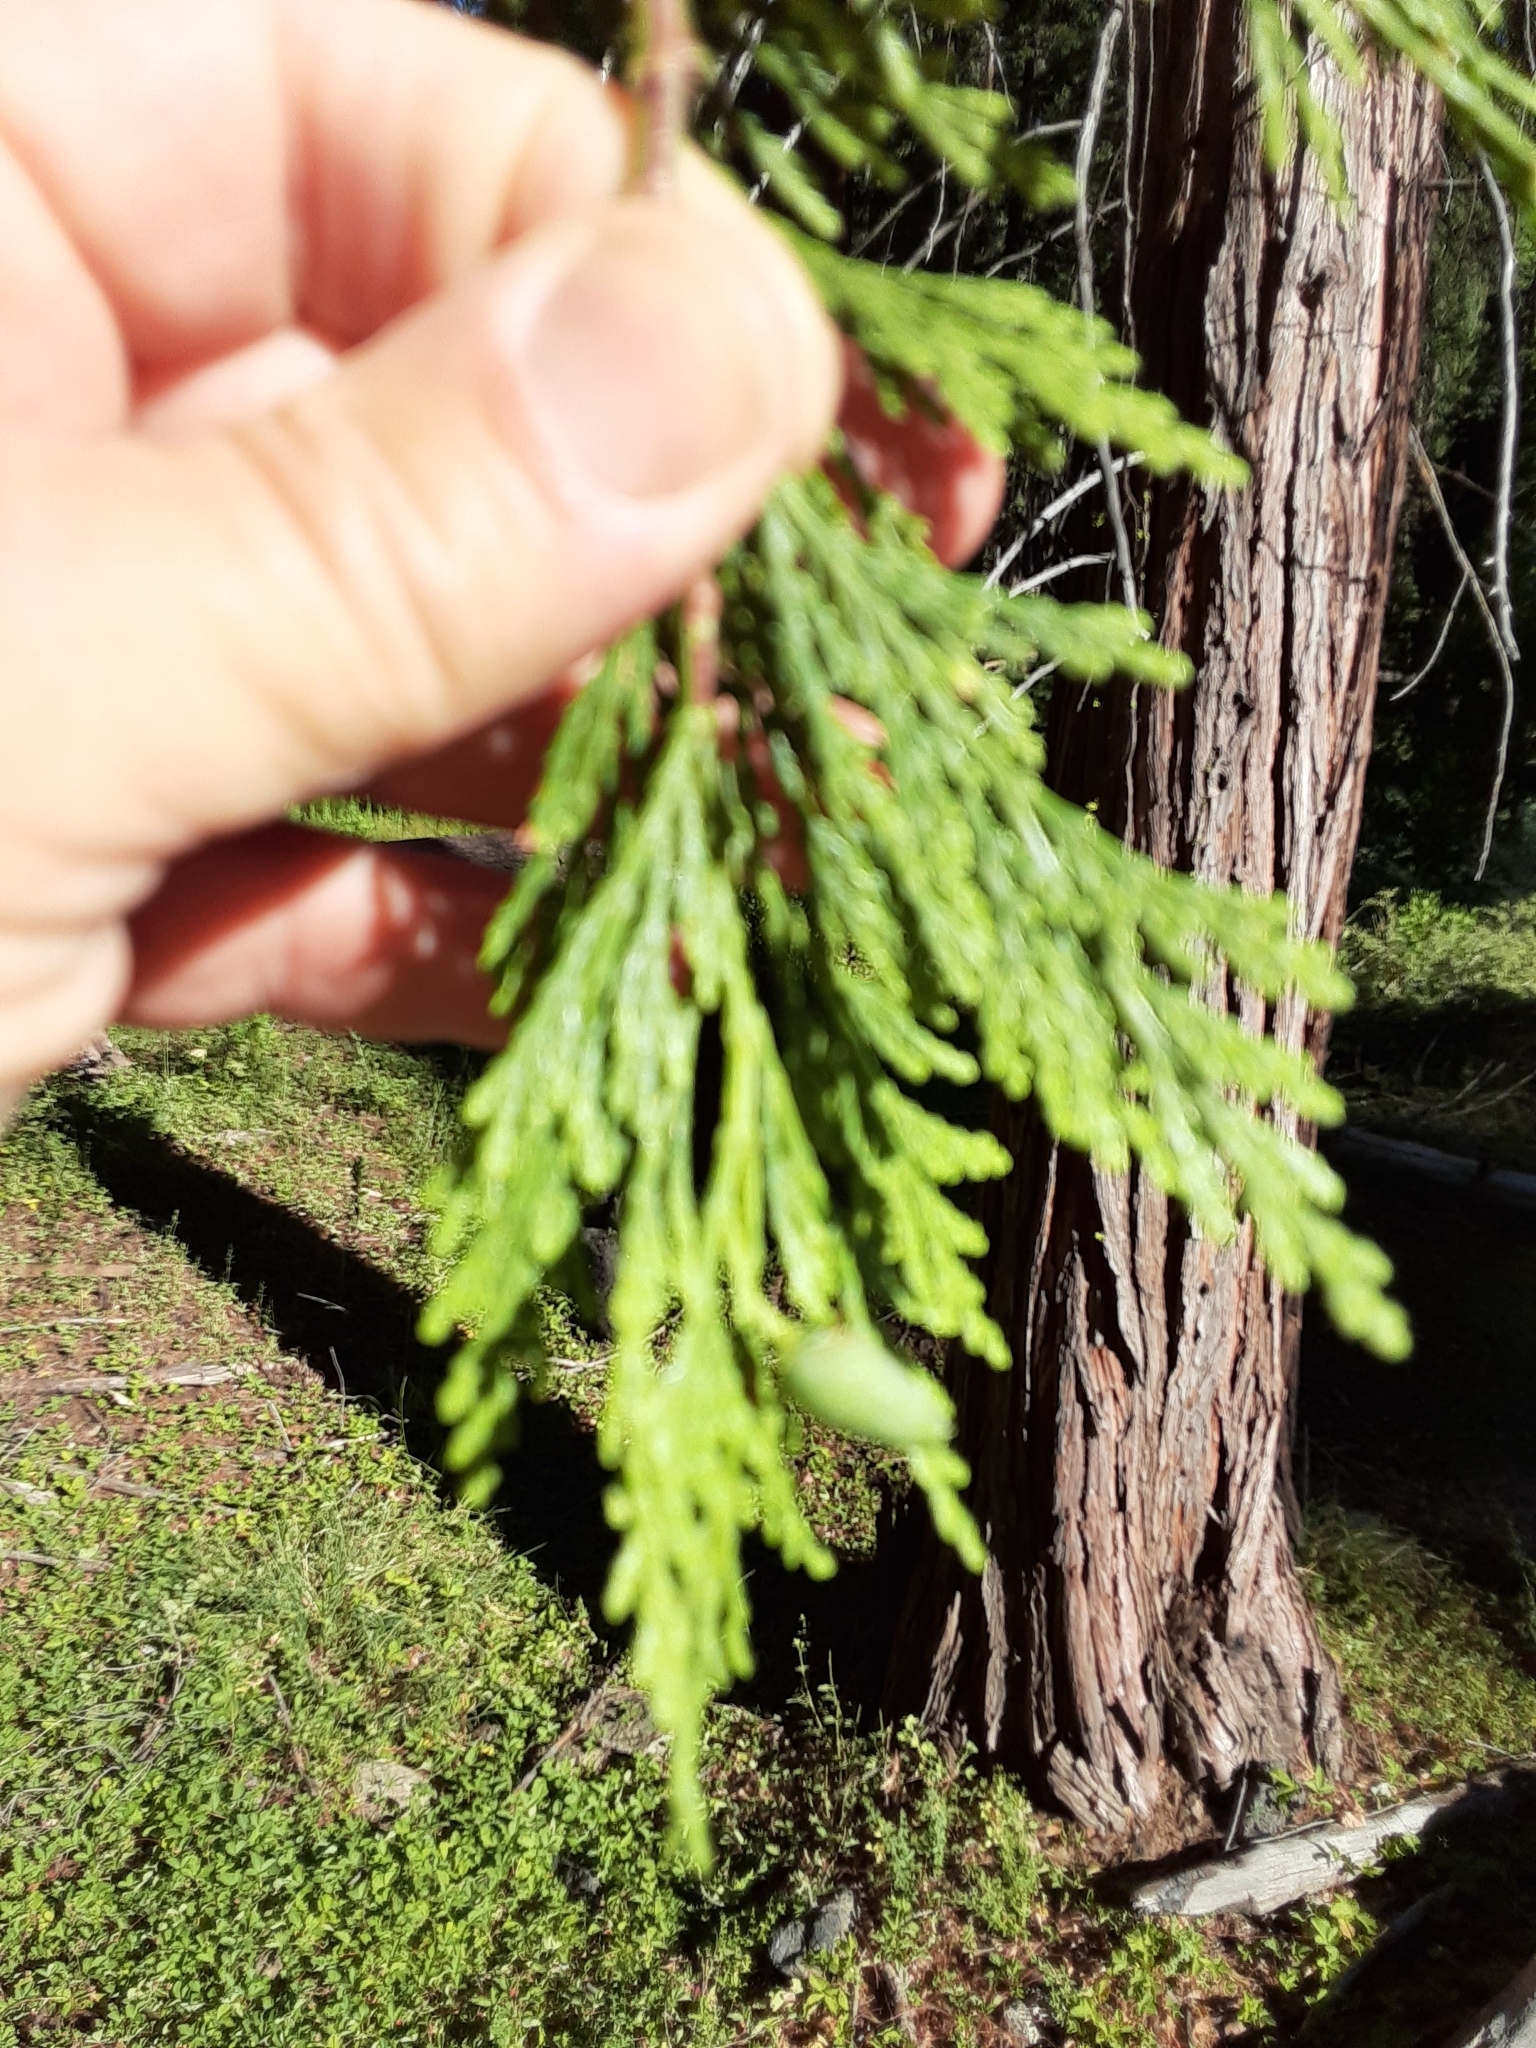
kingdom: Plantae
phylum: Tracheophyta
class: Pinopsida
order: Pinales
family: Cupressaceae
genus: Calocedrus
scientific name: Calocedrus decurrens
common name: Californian incense-cedar
